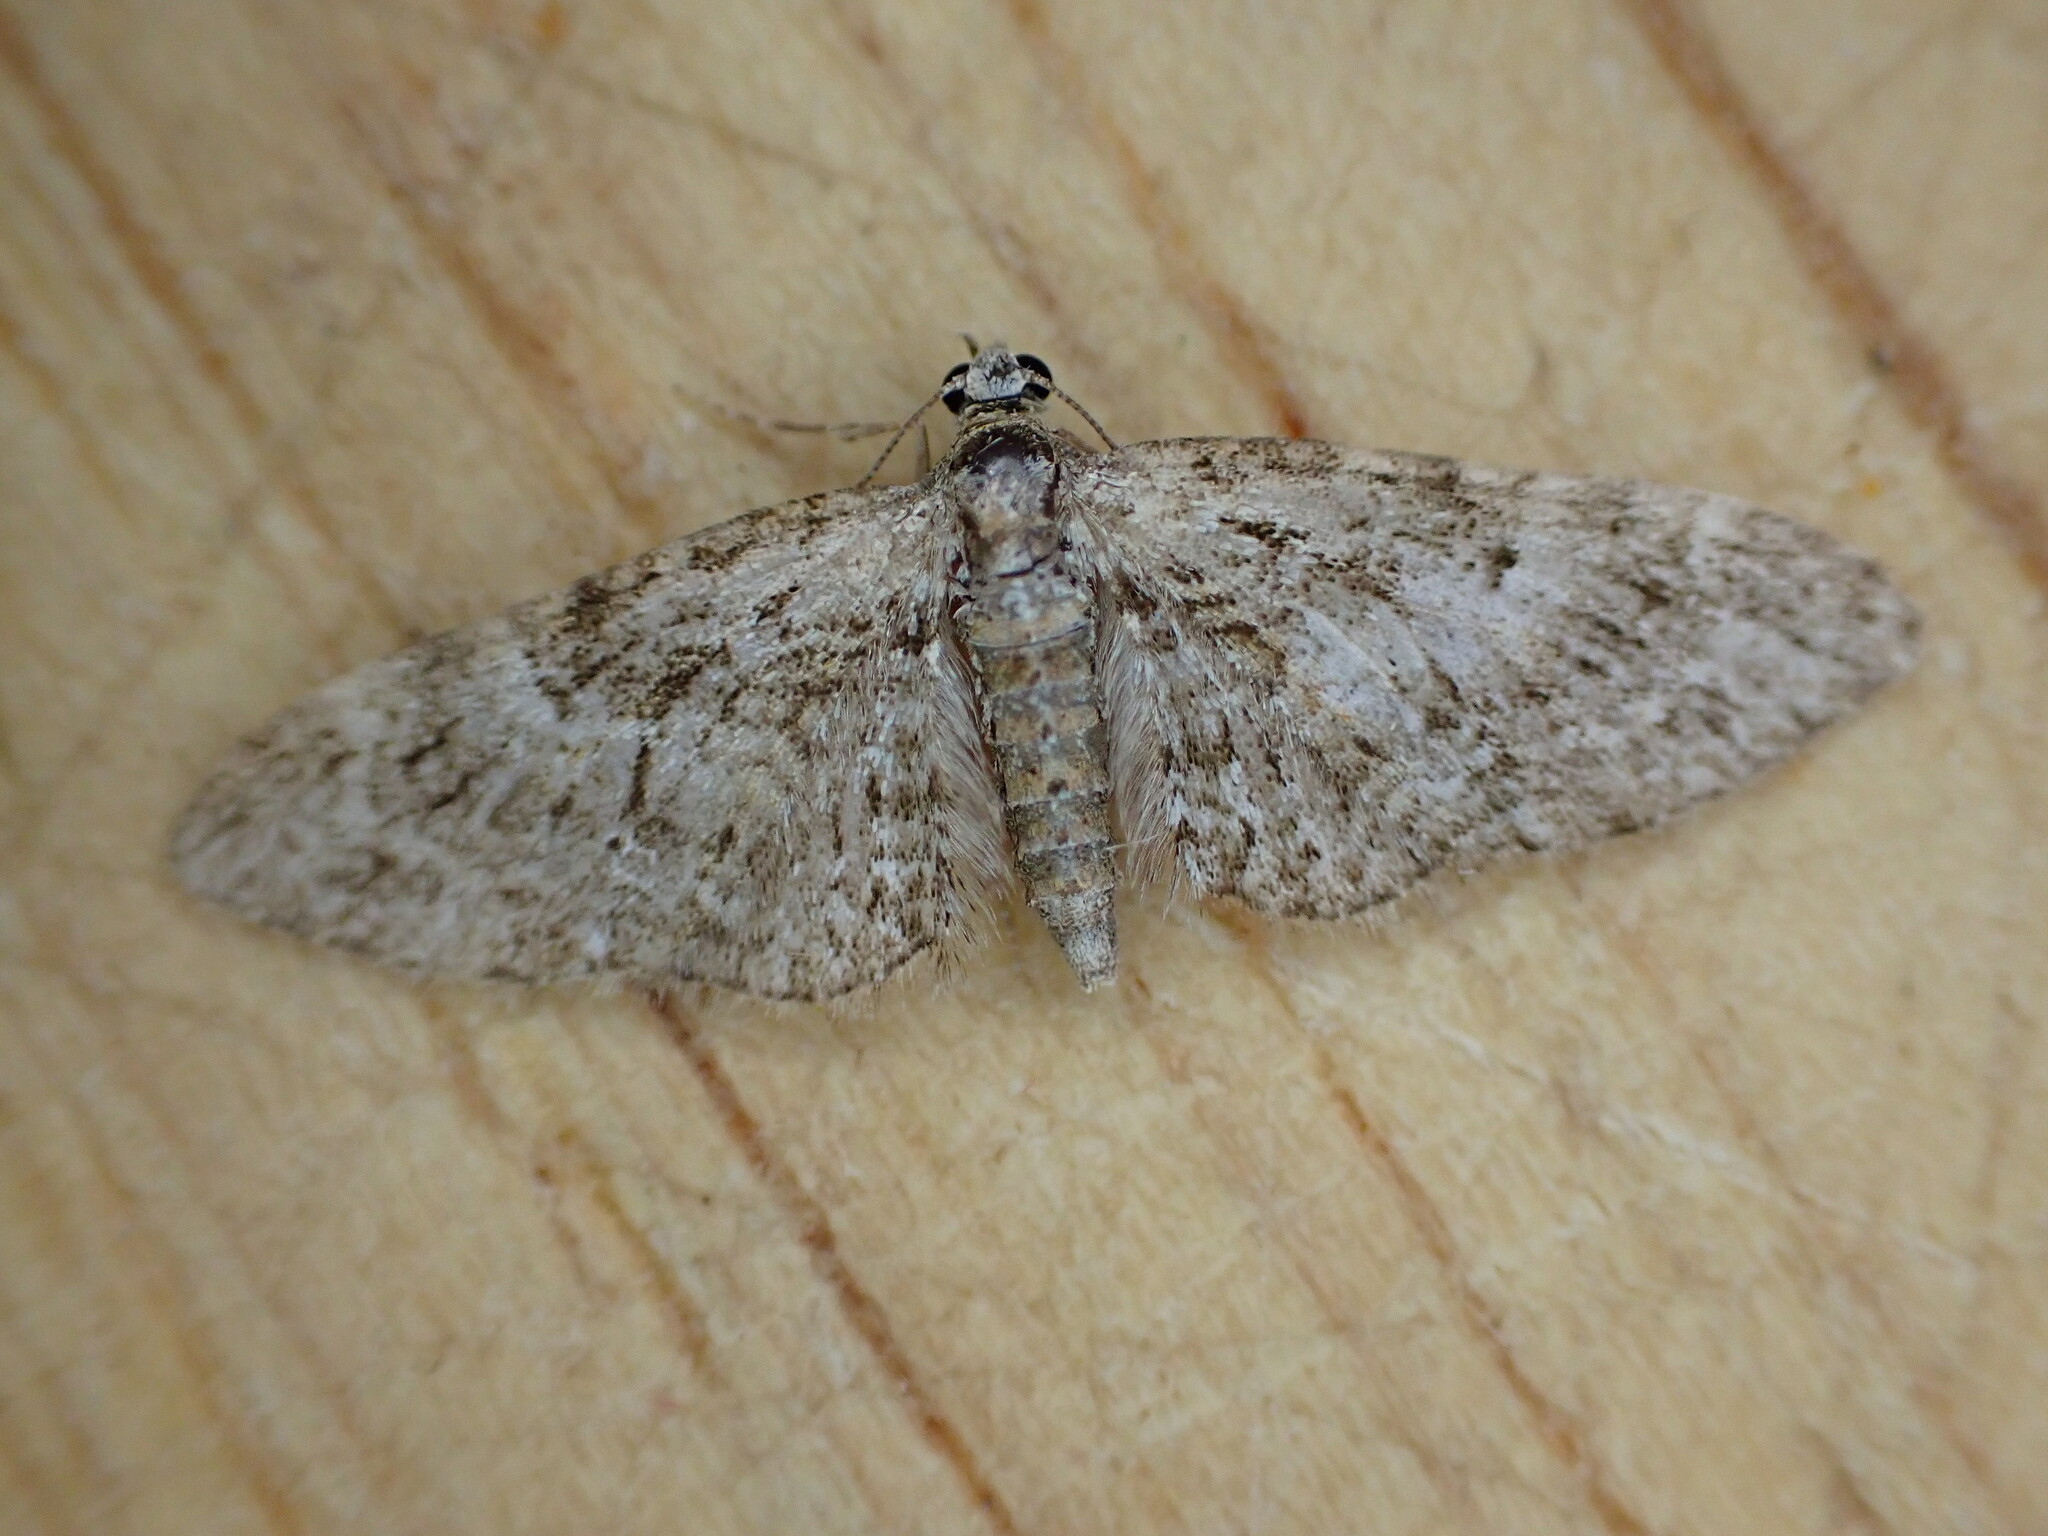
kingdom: Animalia
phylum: Arthropoda
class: Insecta
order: Lepidoptera
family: Geometridae
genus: Eupithecia
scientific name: Eupithecia abbreviata
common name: Brindled pug
